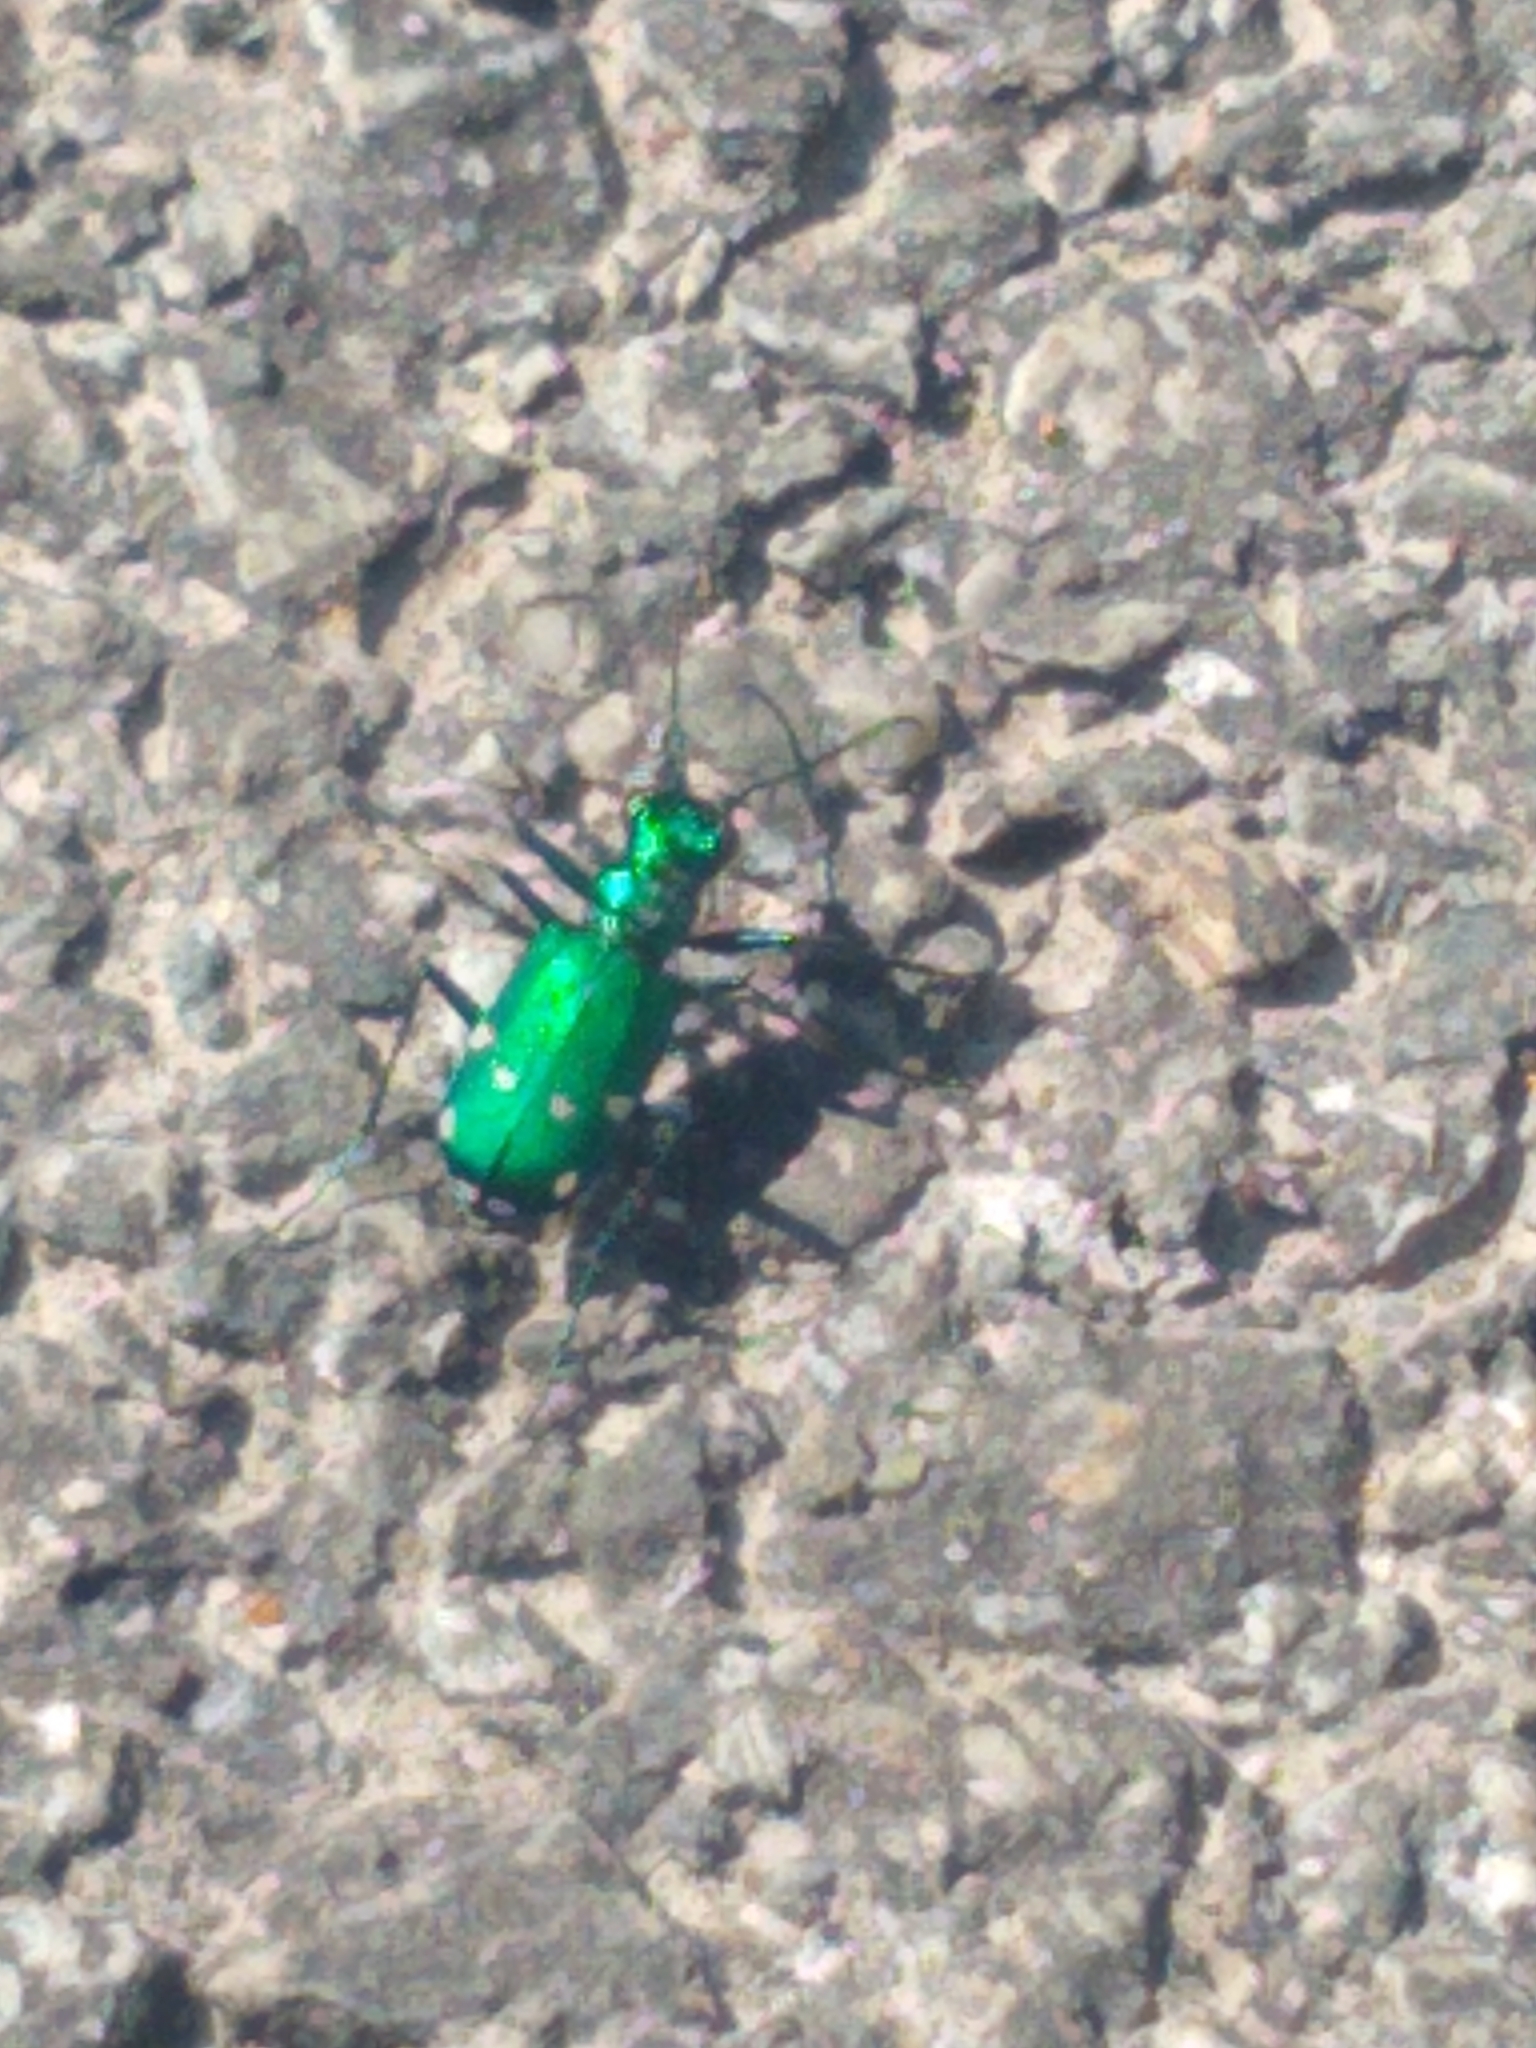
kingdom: Animalia
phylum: Arthropoda
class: Insecta
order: Coleoptera
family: Carabidae
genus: Cicindela
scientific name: Cicindela sexguttata
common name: Six-spotted tiger beetle
